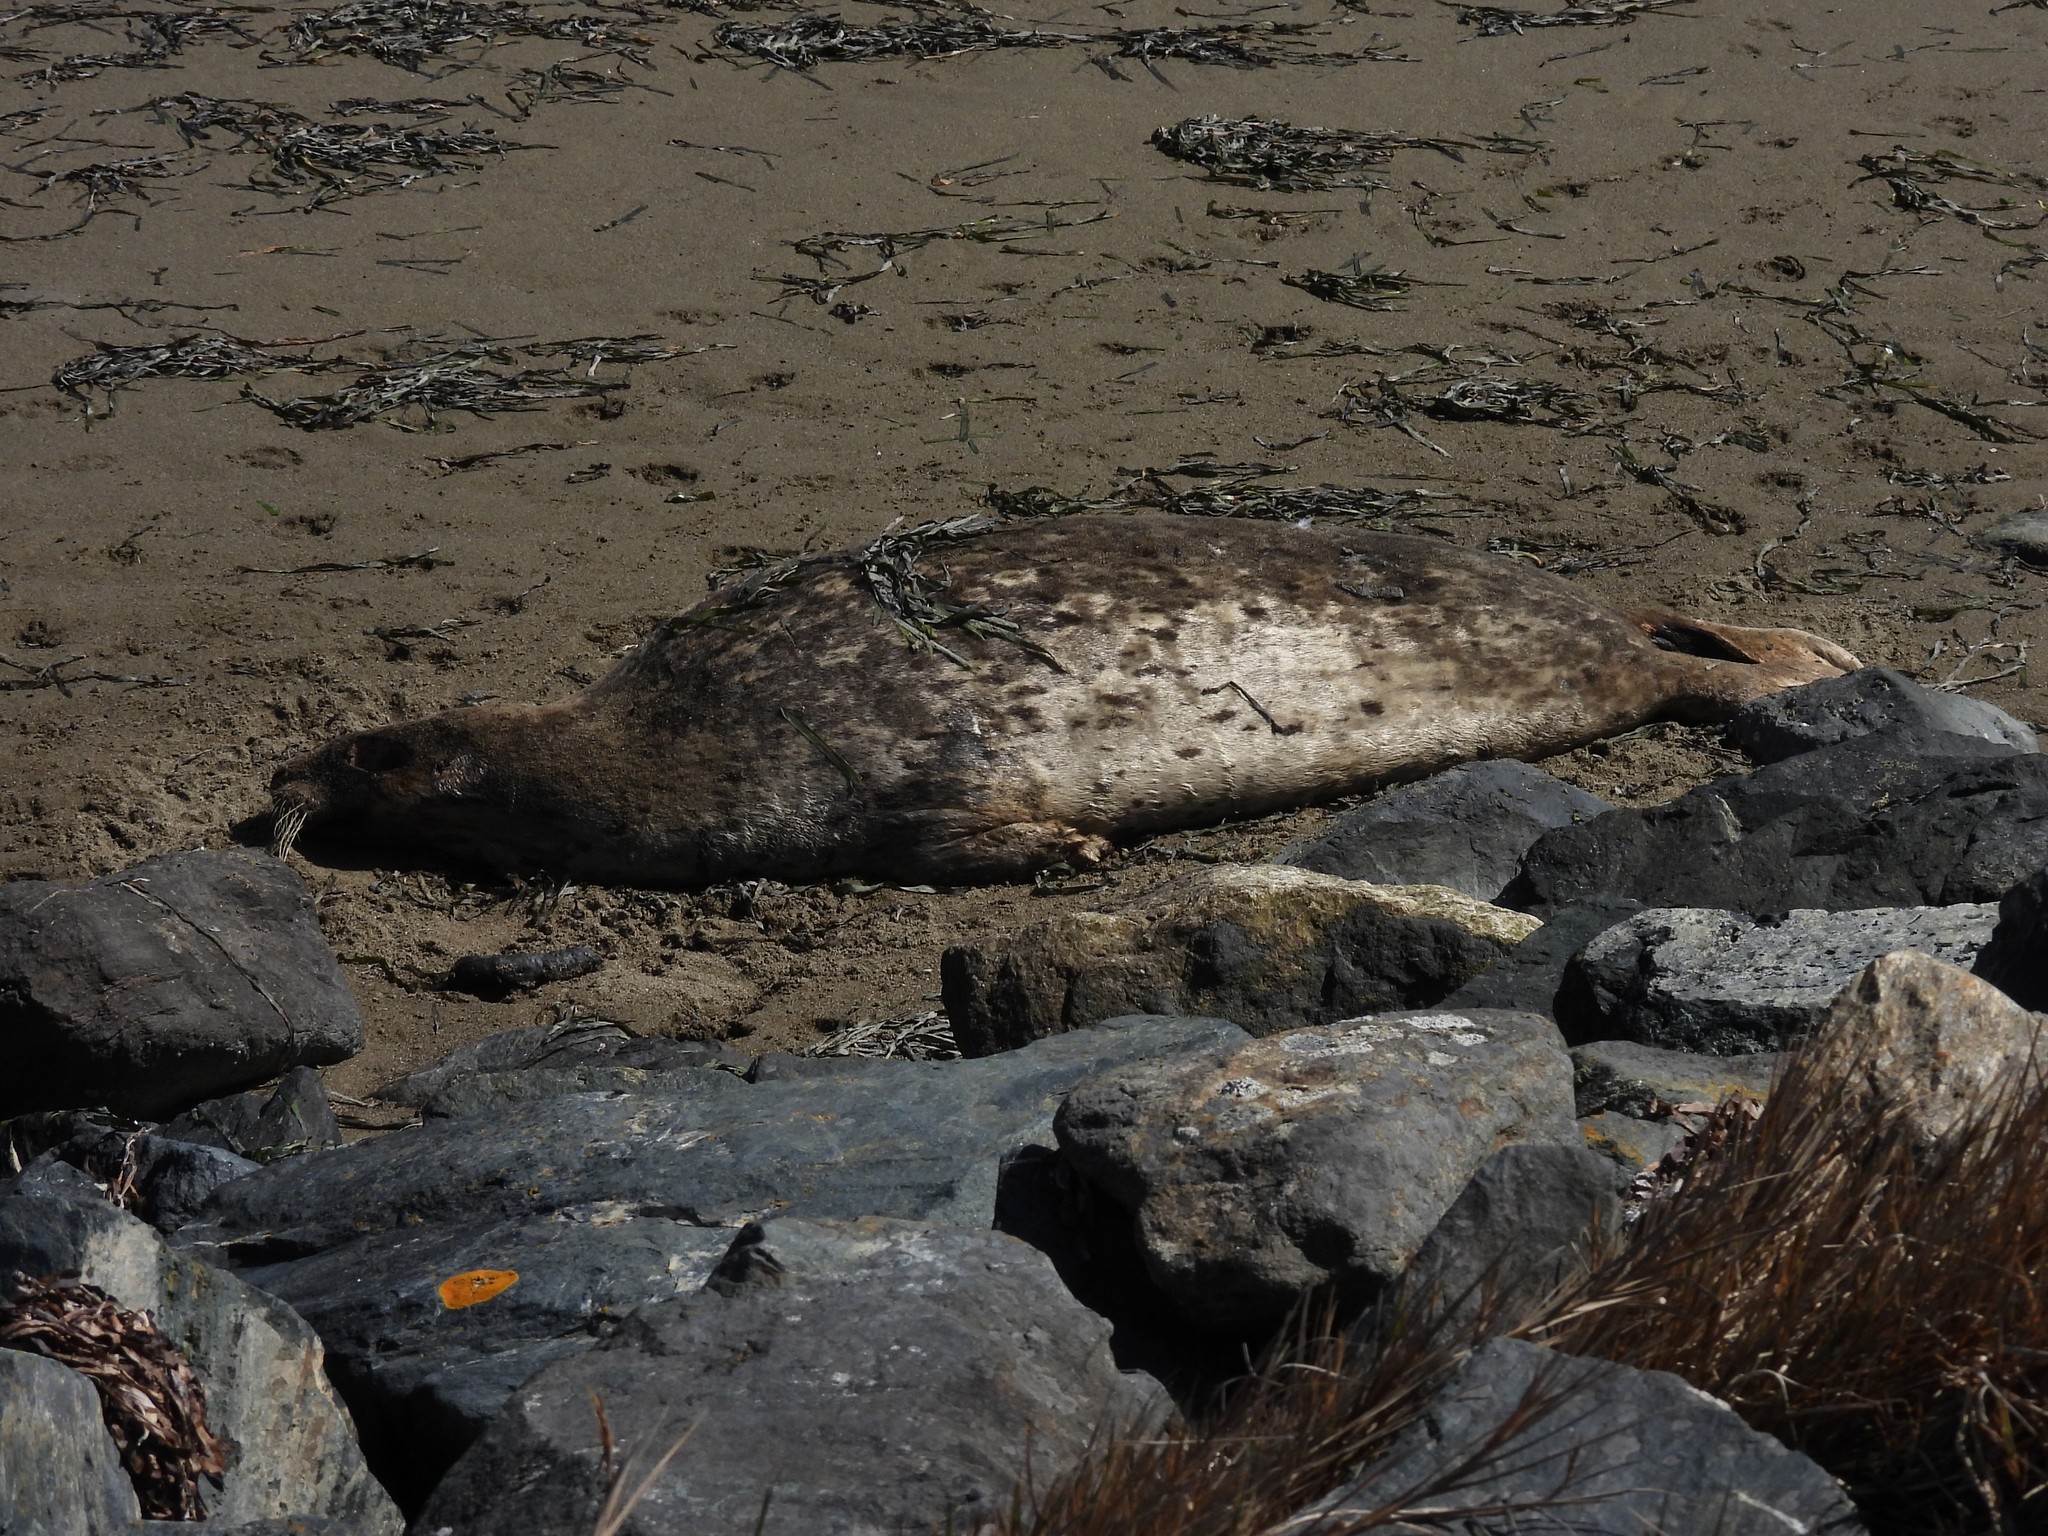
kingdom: Animalia
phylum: Chordata
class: Mammalia
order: Carnivora
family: Phocidae
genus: Phoca
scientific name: Phoca vitulina
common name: Harbor seal
